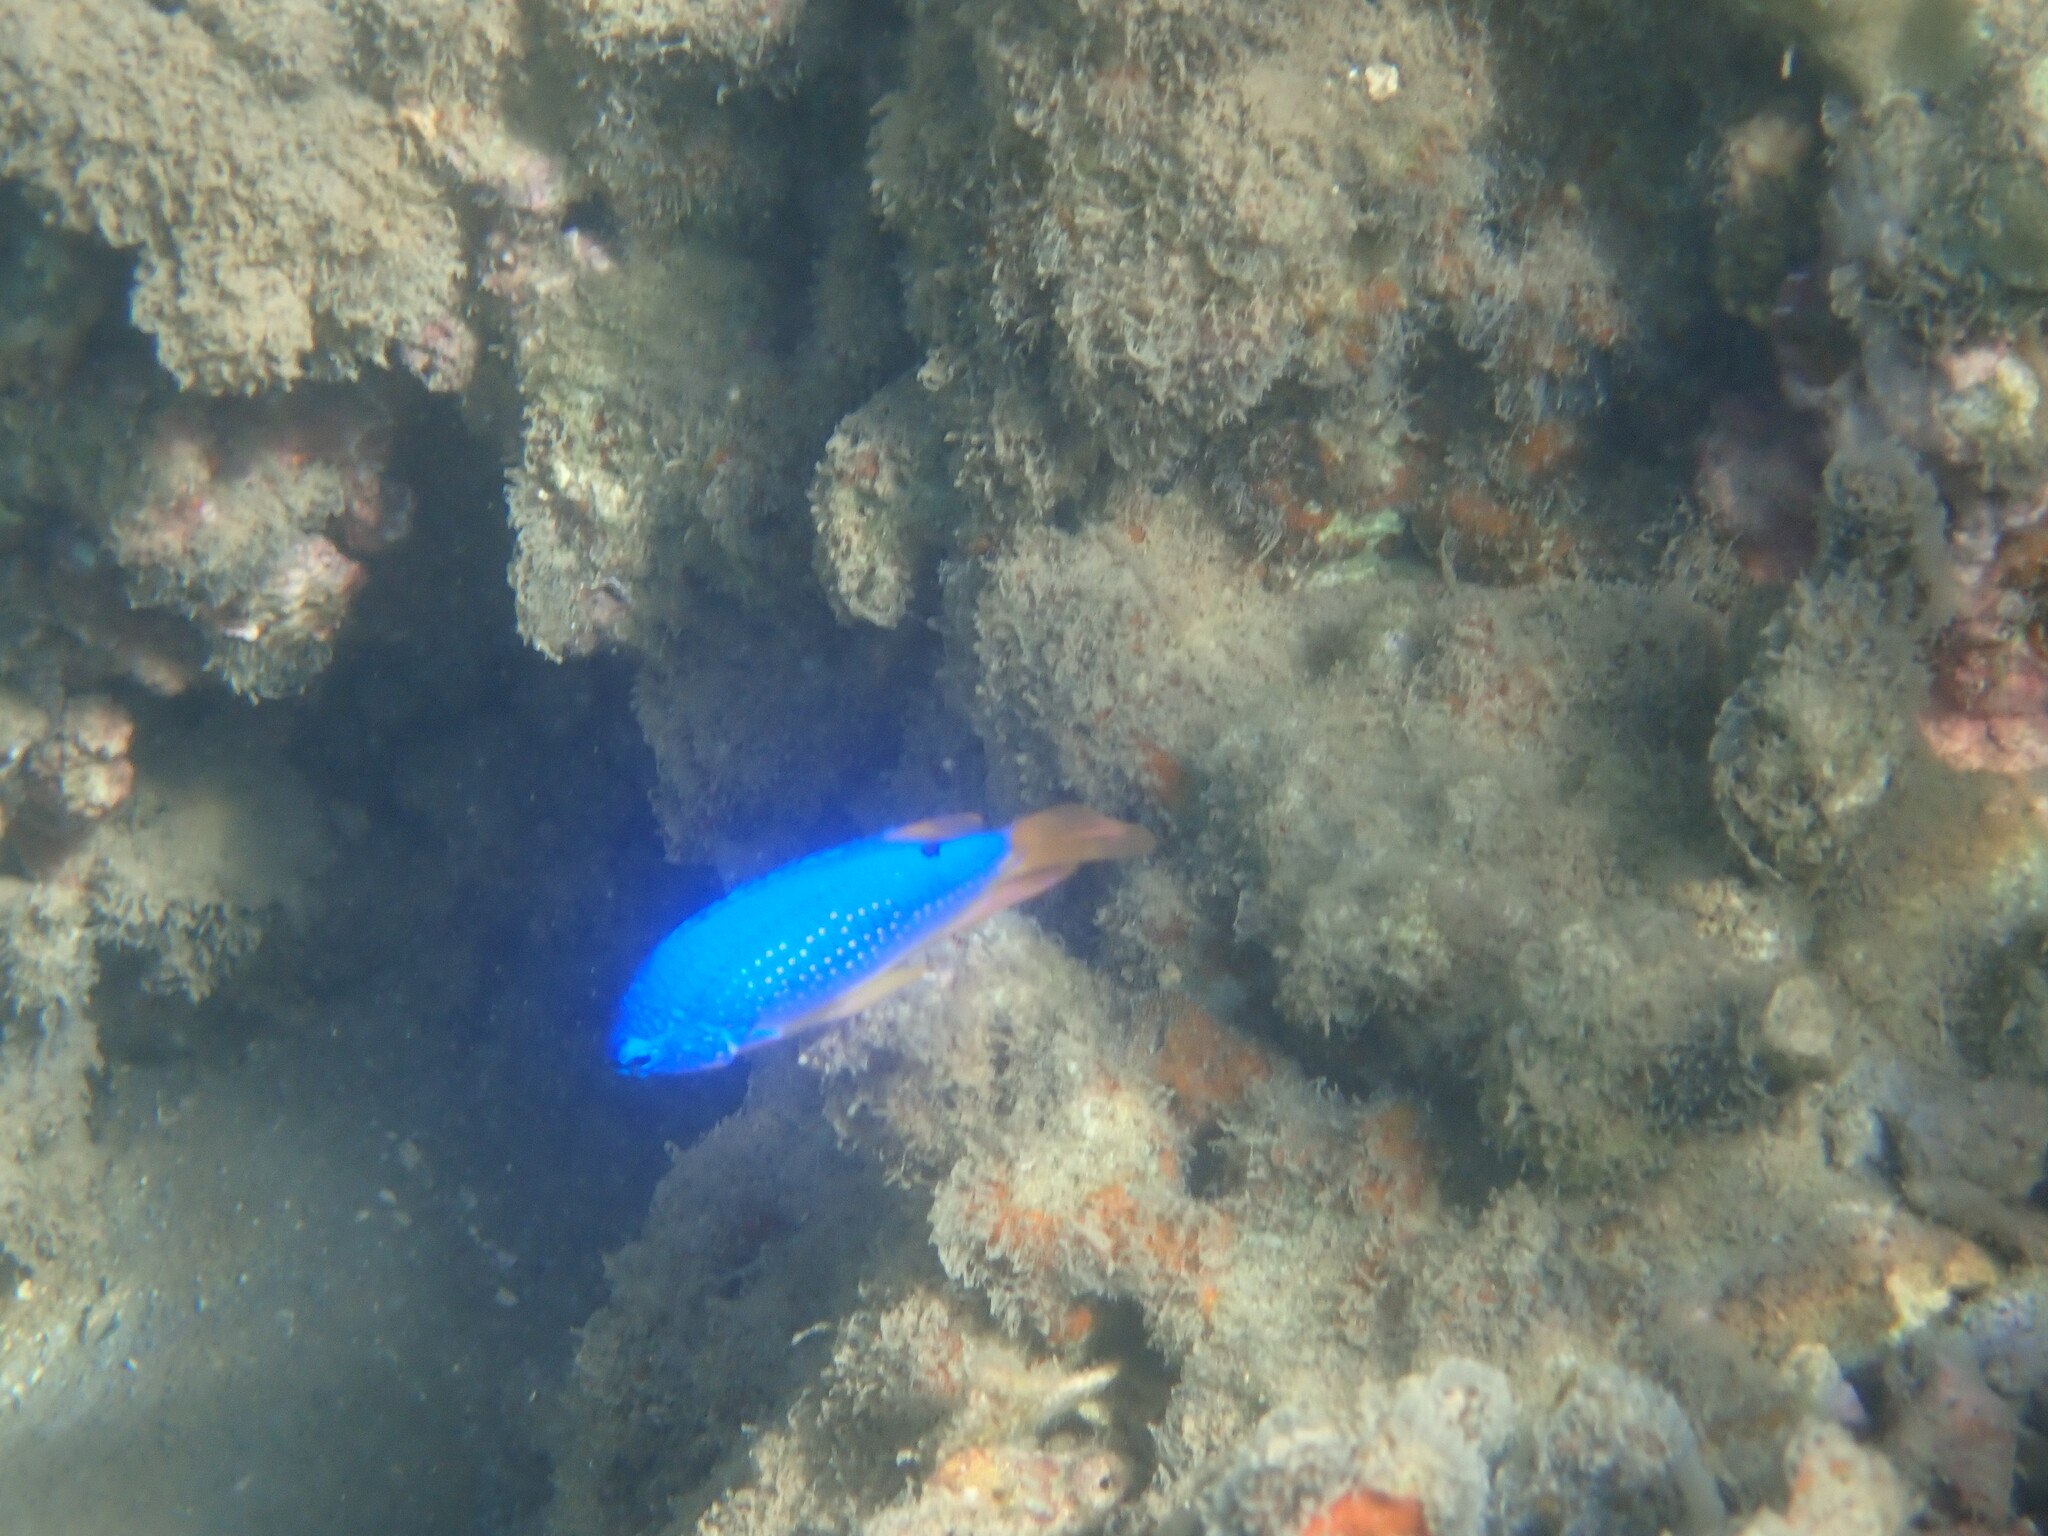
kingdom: Animalia
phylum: Chordata
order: Perciformes
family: Pomacentridae
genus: Chrysiptera
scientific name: Chrysiptera taupou
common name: Fiji damsel
